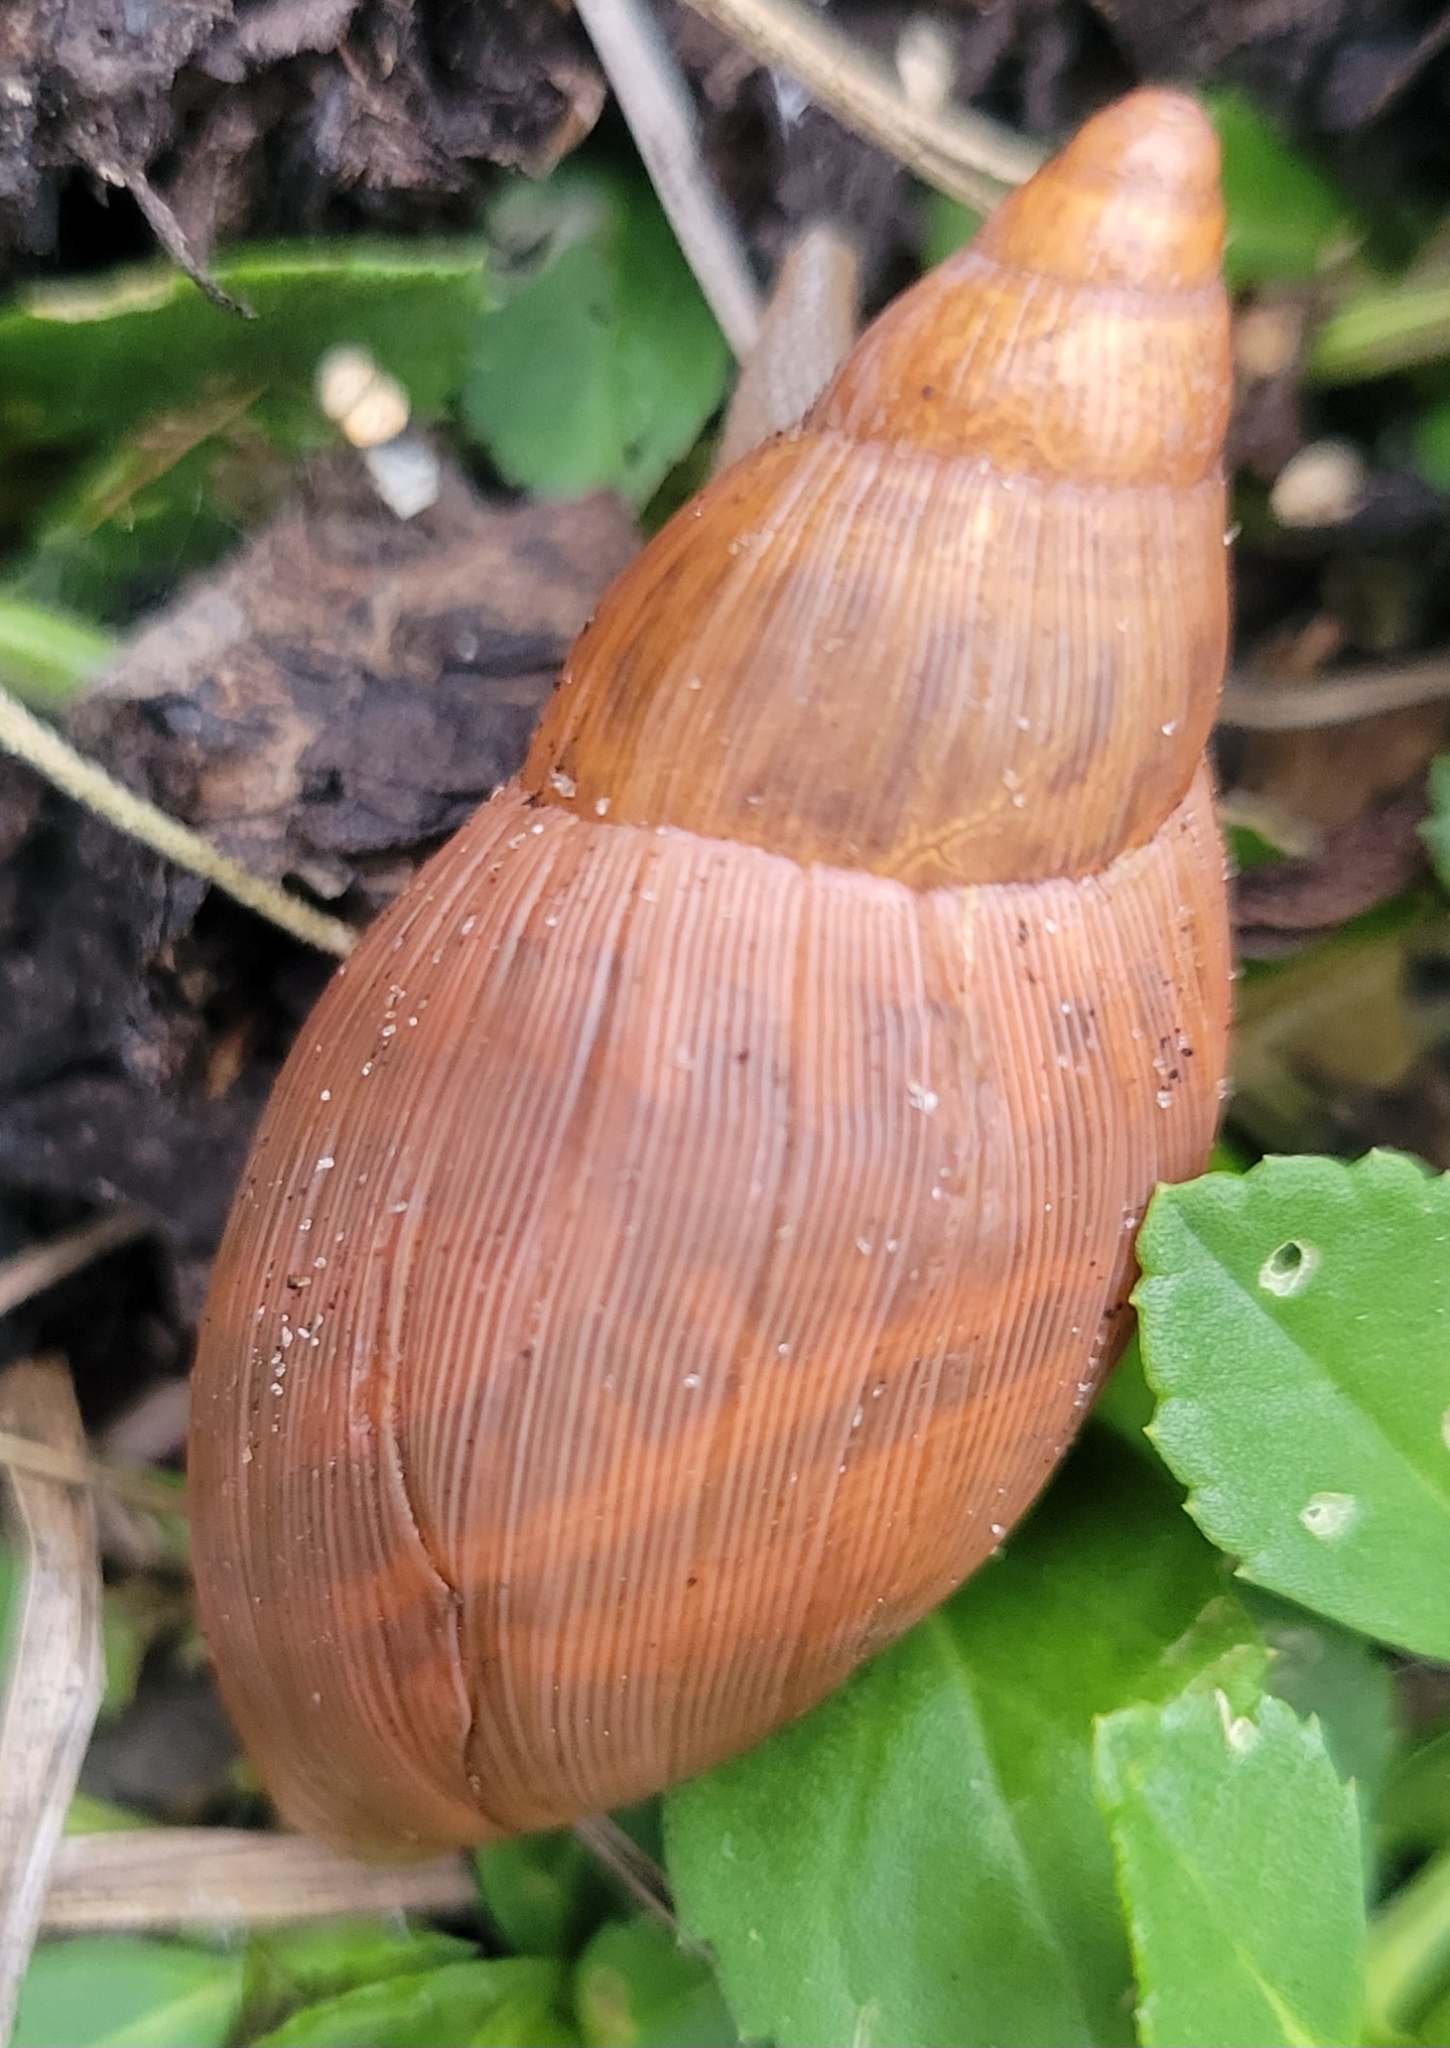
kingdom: Animalia
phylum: Mollusca
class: Gastropoda
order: Stylommatophora
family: Spiraxidae
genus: Euglandina
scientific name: Euglandina rosea
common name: Rosy wolfsnail
